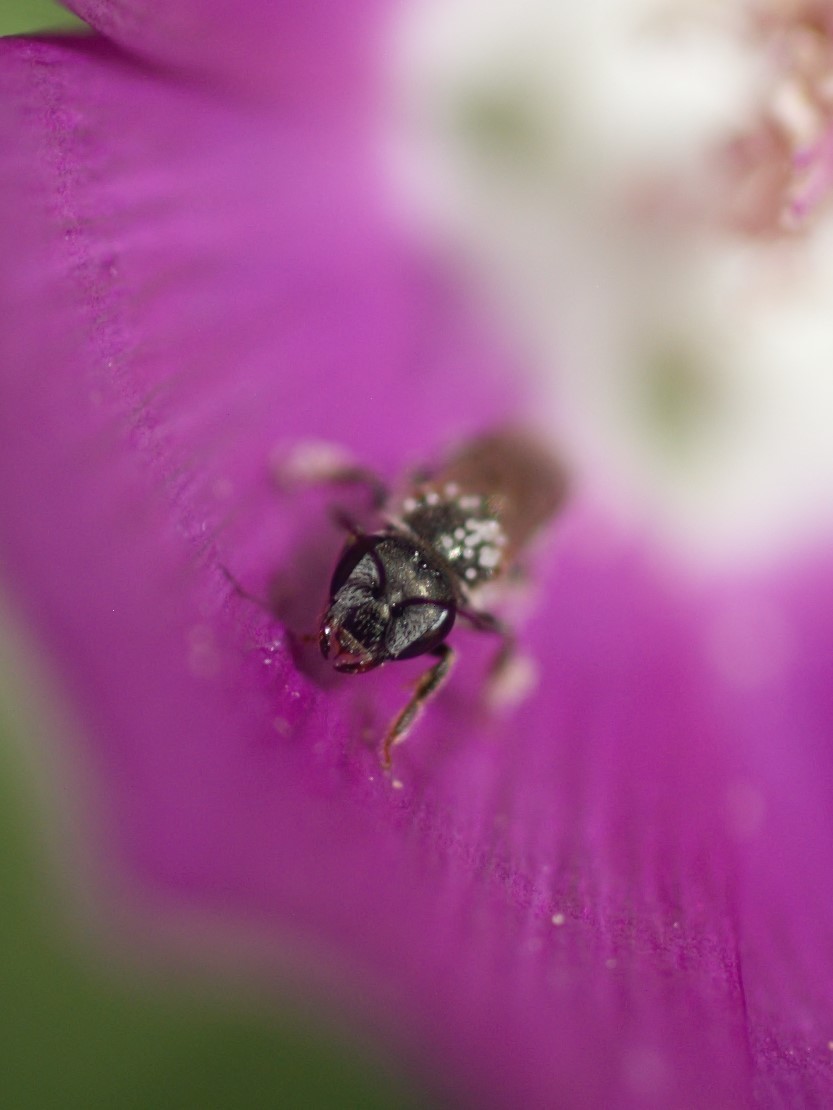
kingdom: Animalia
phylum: Arthropoda
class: Insecta
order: Hymenoptera
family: Halictidae
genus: Halictus
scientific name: Halictus tripartitus
